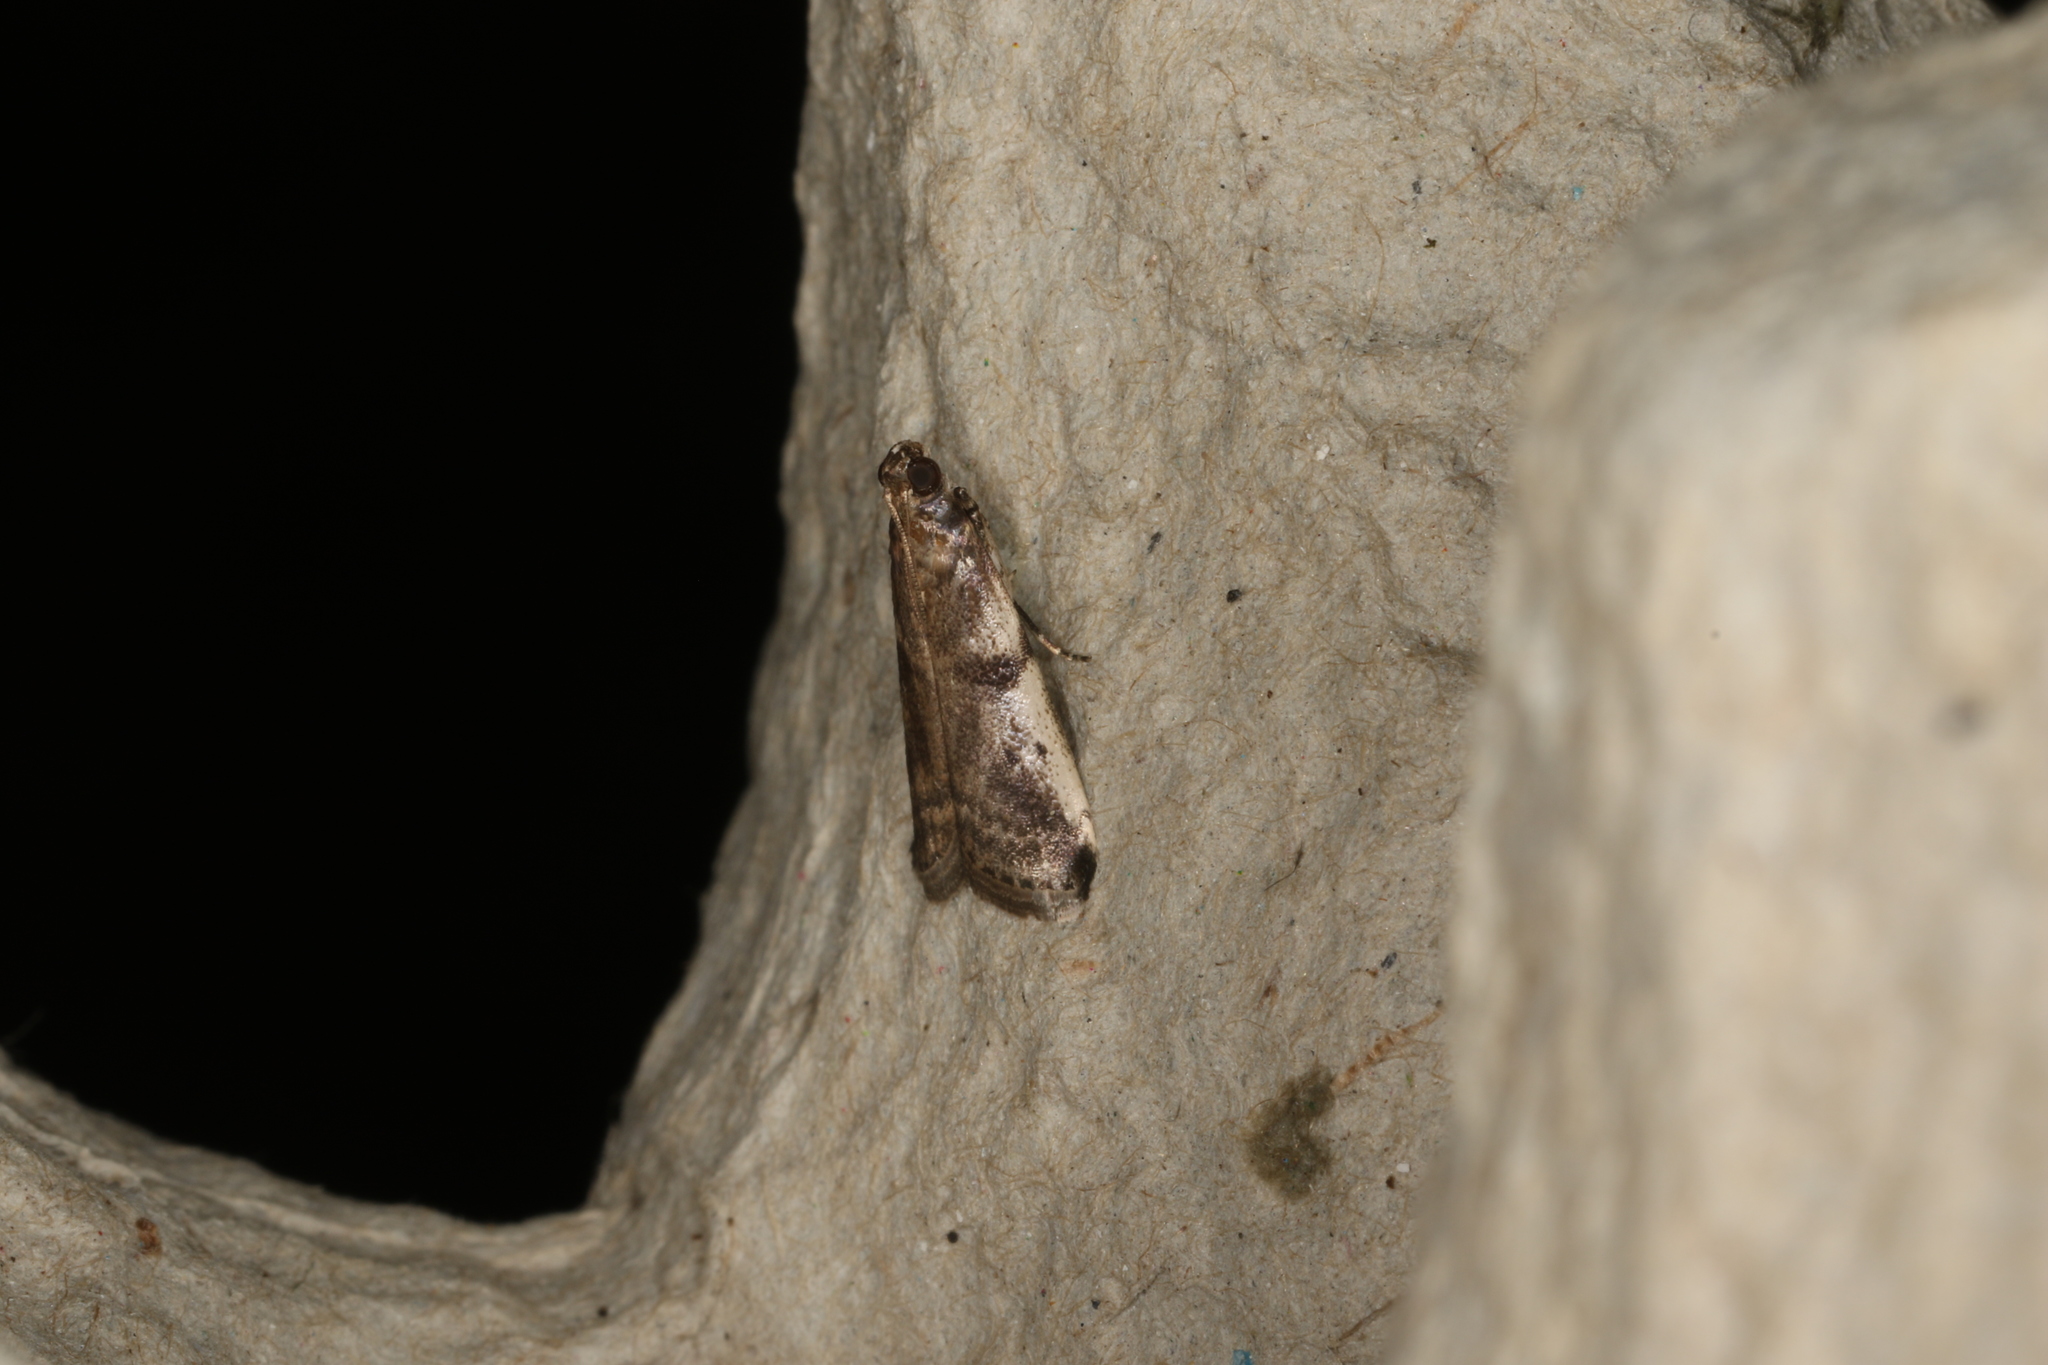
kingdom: Animalia
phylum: Arthropoda
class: Insecta
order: Lepidoptera
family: Pyralidae
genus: Assara
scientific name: Assara seminivale
